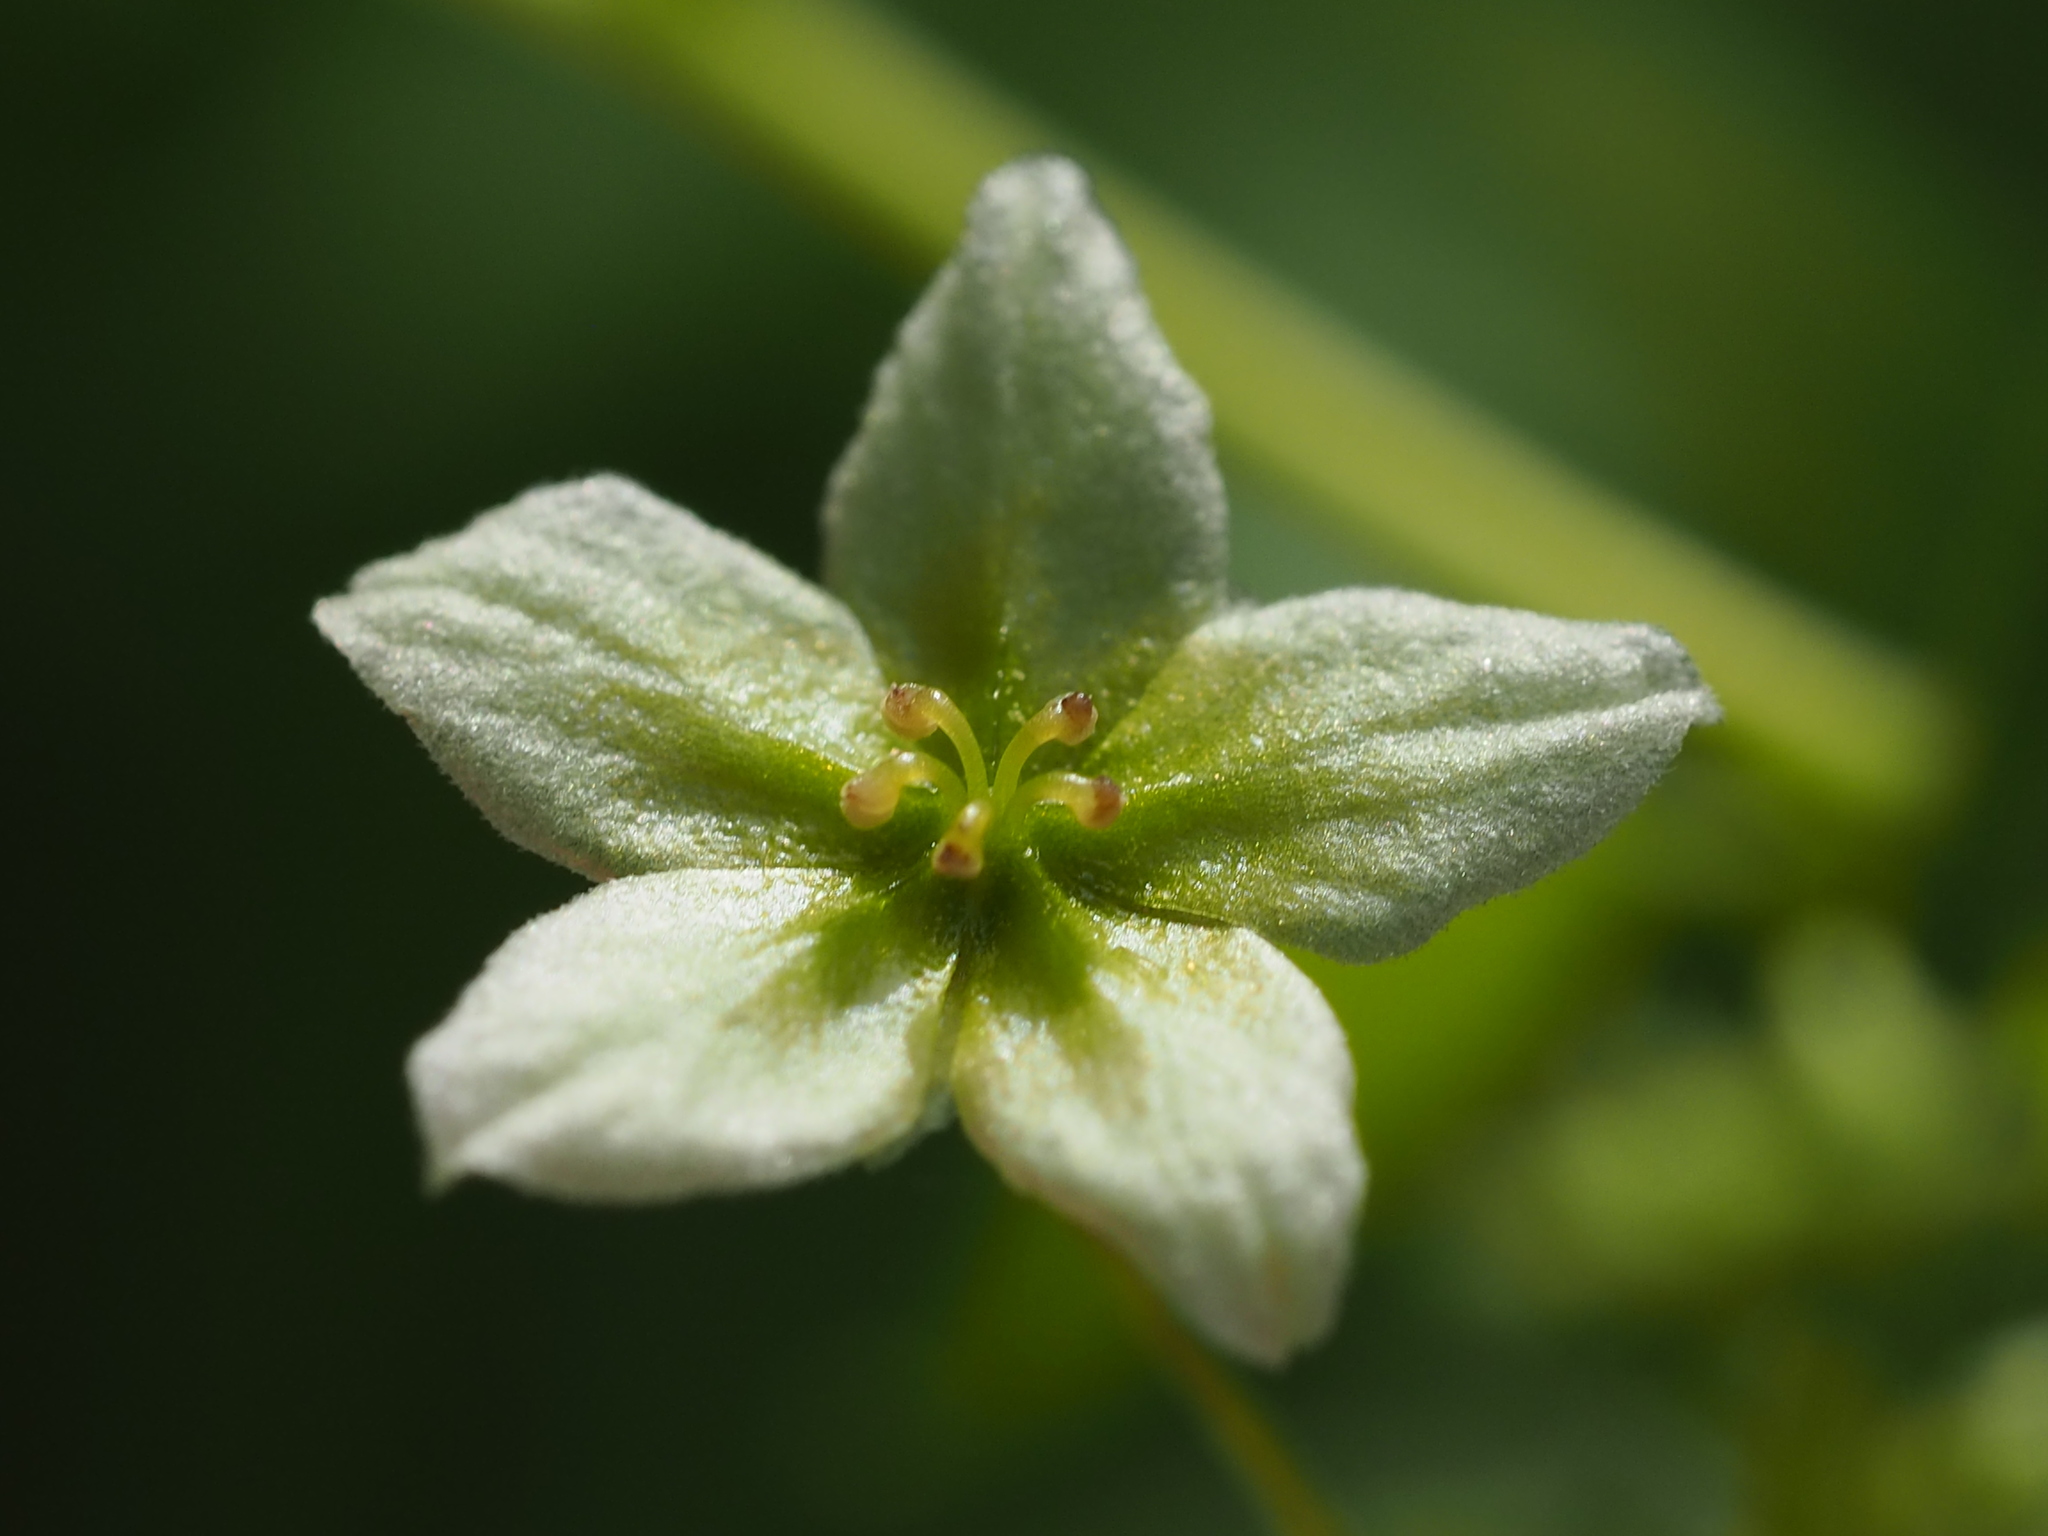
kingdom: Plantae
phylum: Tracheophyta
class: Magnoliopsida
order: Cucurbitales
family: Cucurbitaceae
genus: Neoalsomitra
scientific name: Neoalsomitra clavigera
